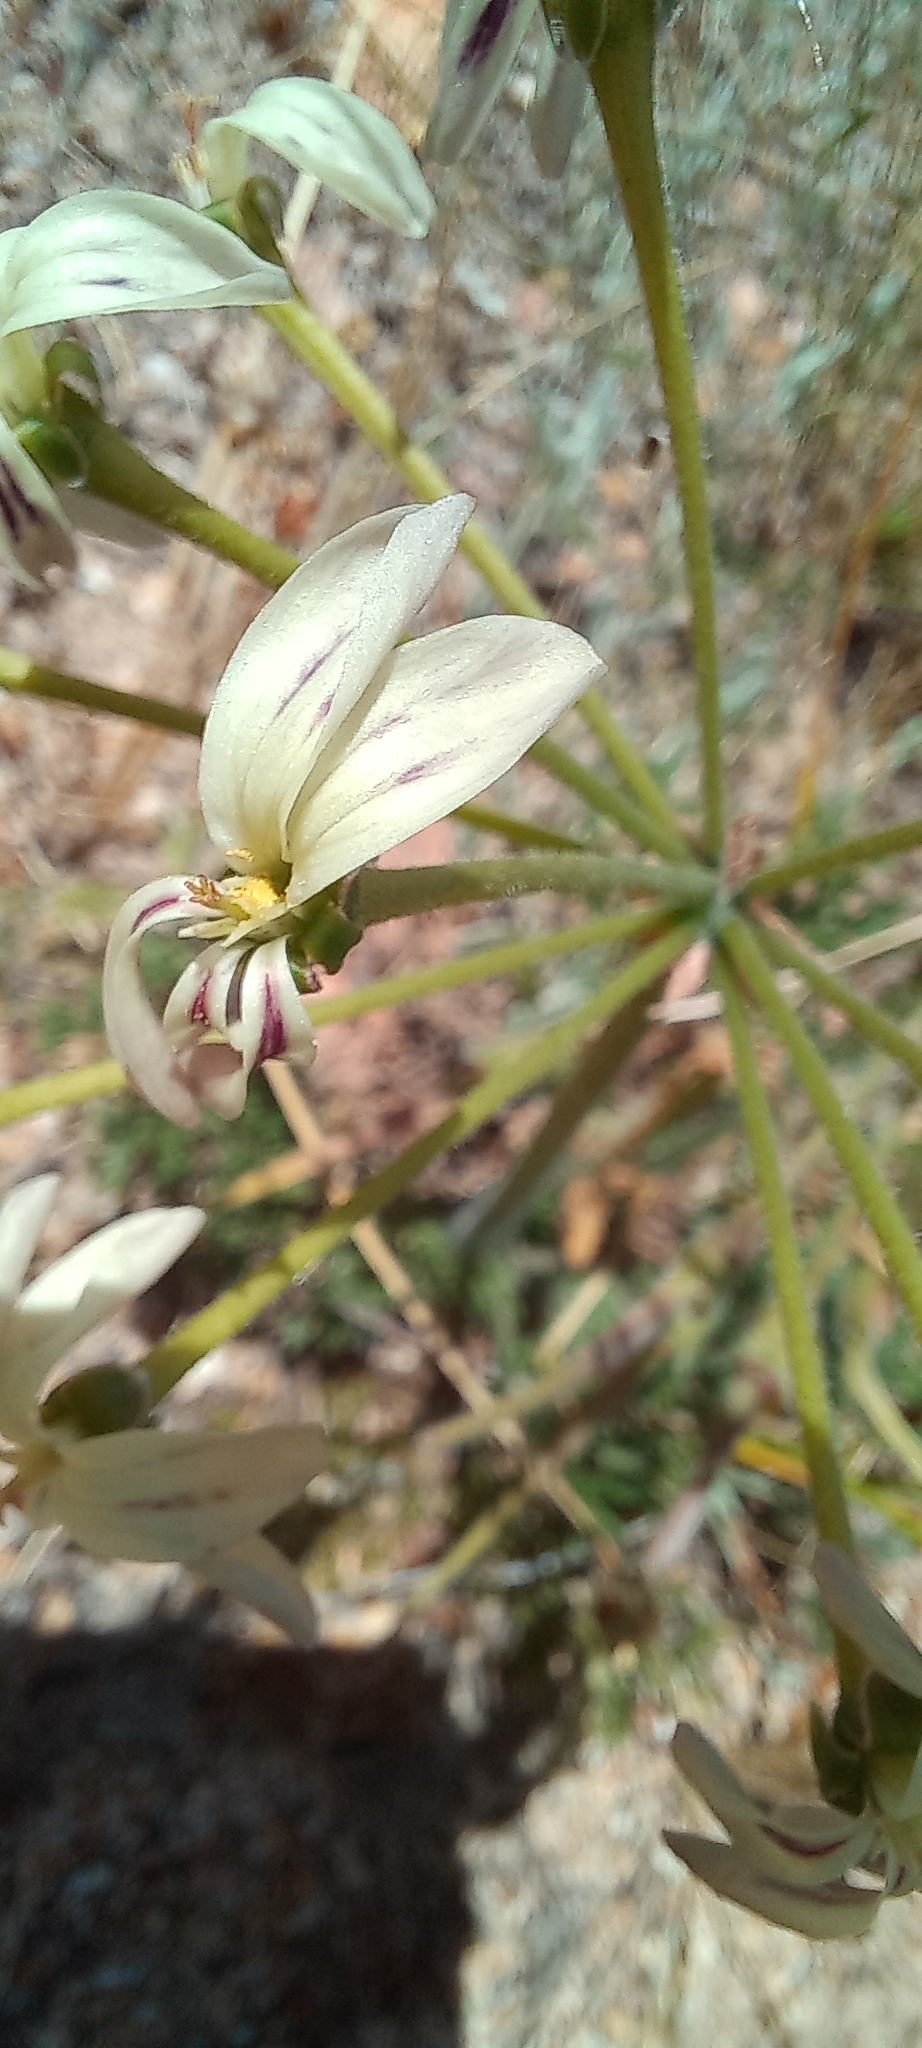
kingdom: Plantae
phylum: Tracheophyta
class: Magnoliopsida
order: Geraniales
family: Geraniaceae
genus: Pelargonium
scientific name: Pelargonium triste
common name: Night-scent pelargonium
